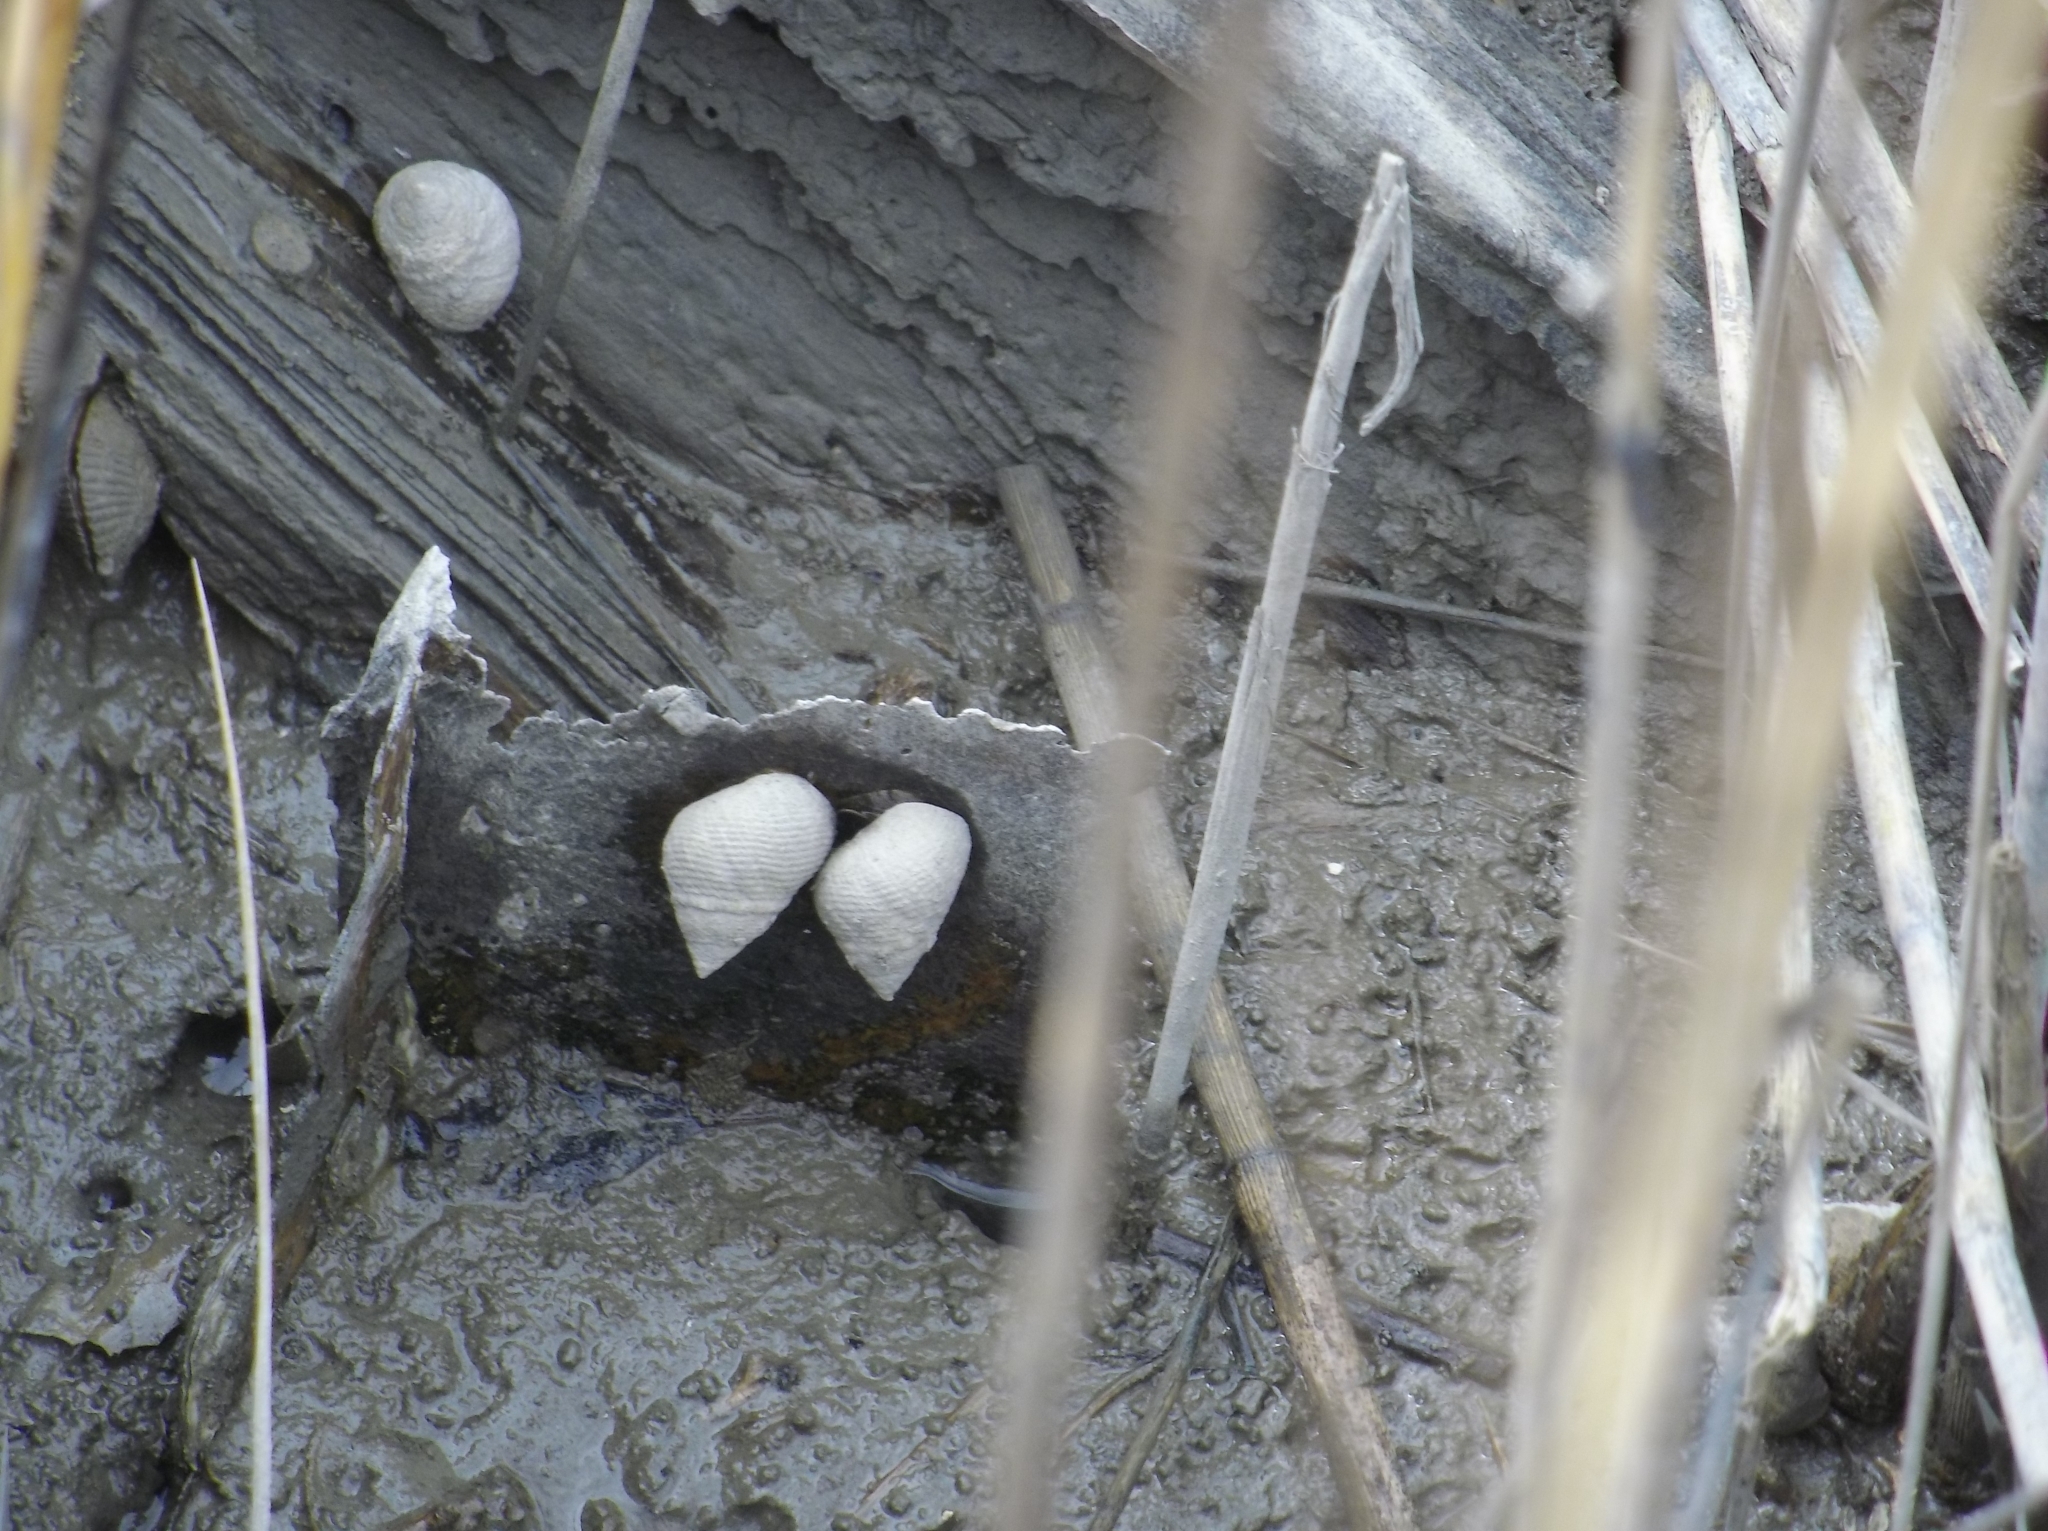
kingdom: Animalia
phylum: Mollusca
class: Gastropoda
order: Littorinimorpha
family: Littorinidae
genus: Littoraria
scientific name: Littoraria irrorata
